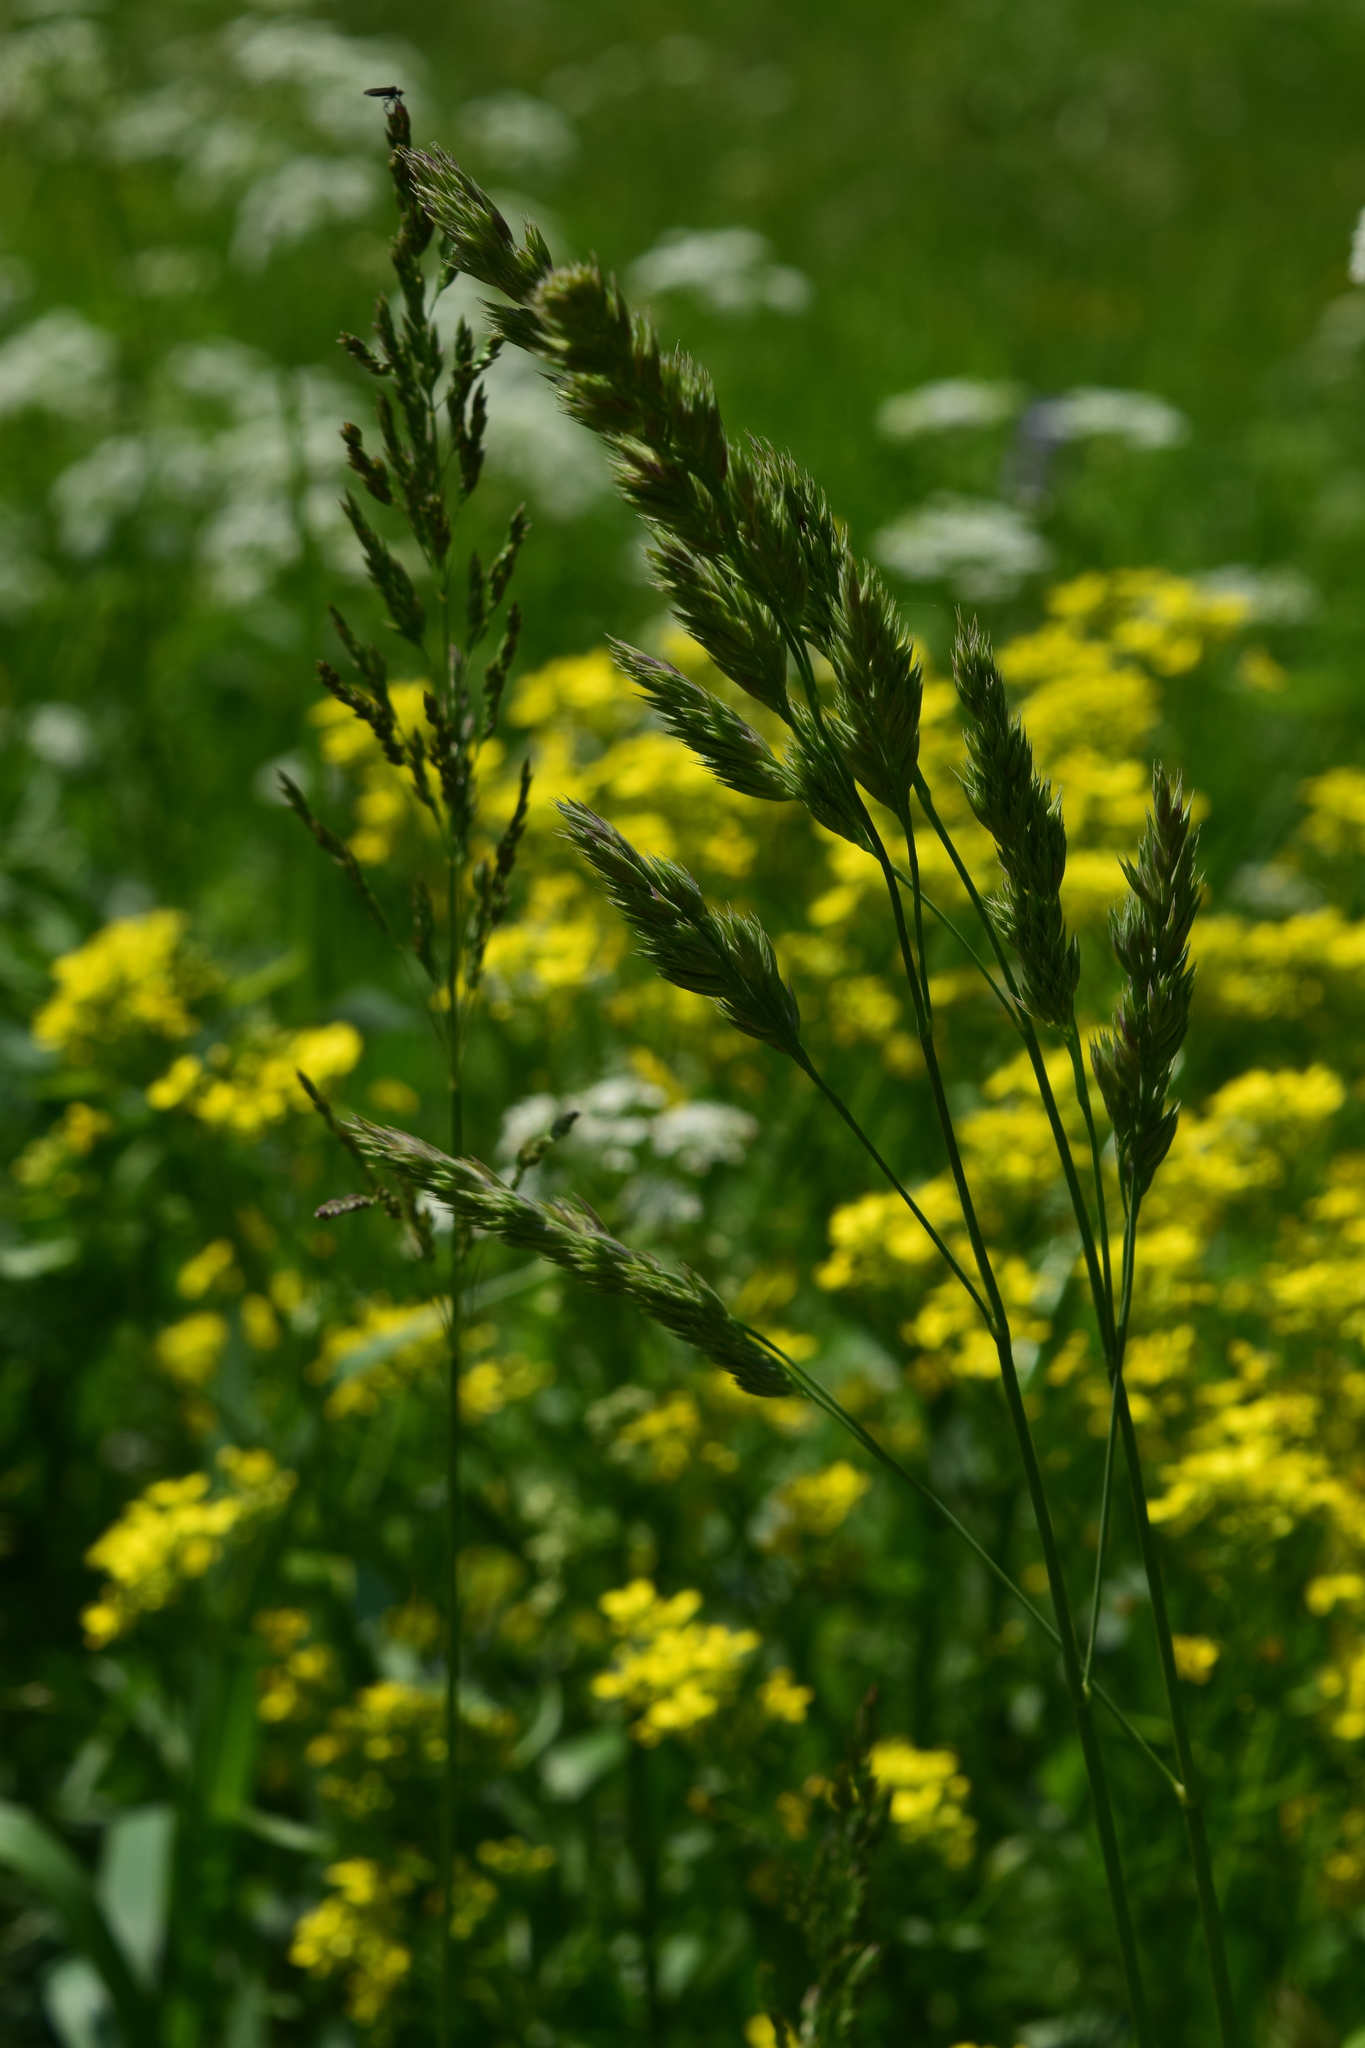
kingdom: Plantae
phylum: Tracheophyta
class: Liliopsida
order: Poales
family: Poaceae
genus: Dactylis
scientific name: Dactylis glomerata
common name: Orchardgrass
